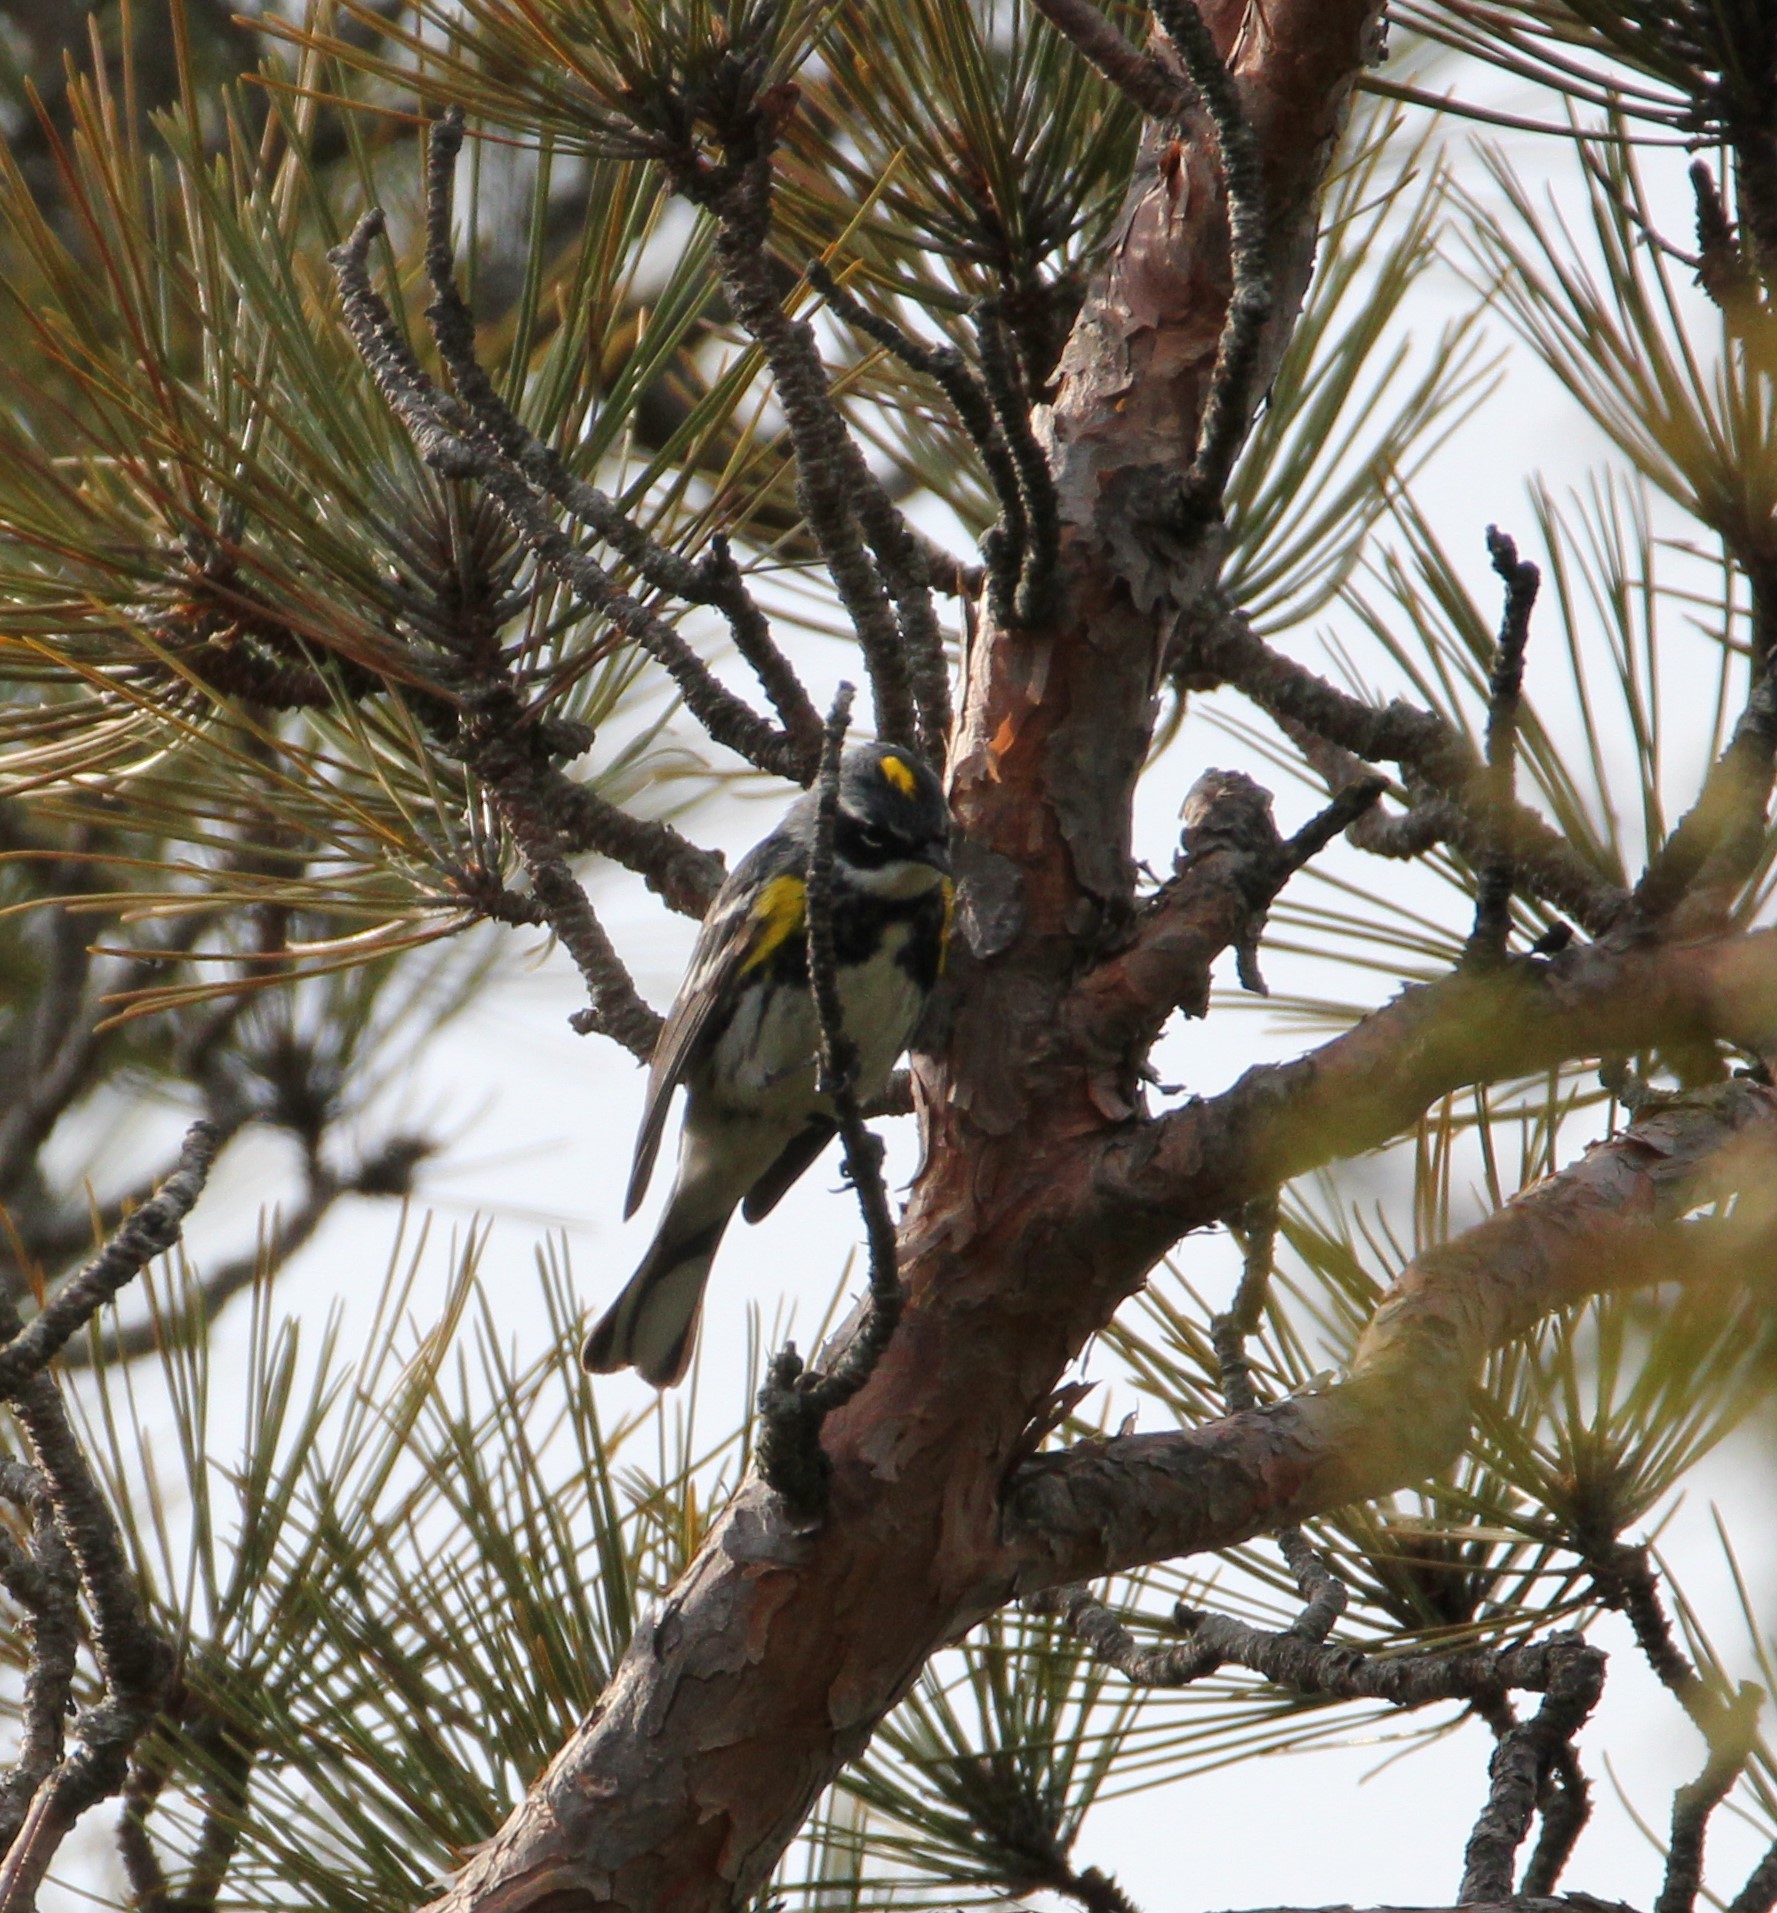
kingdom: Animalia
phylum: Chordata
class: Aves
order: Passeriformes
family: Parulidae
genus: Setophaga
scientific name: Setophaga coronata
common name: Myrtle warbler
